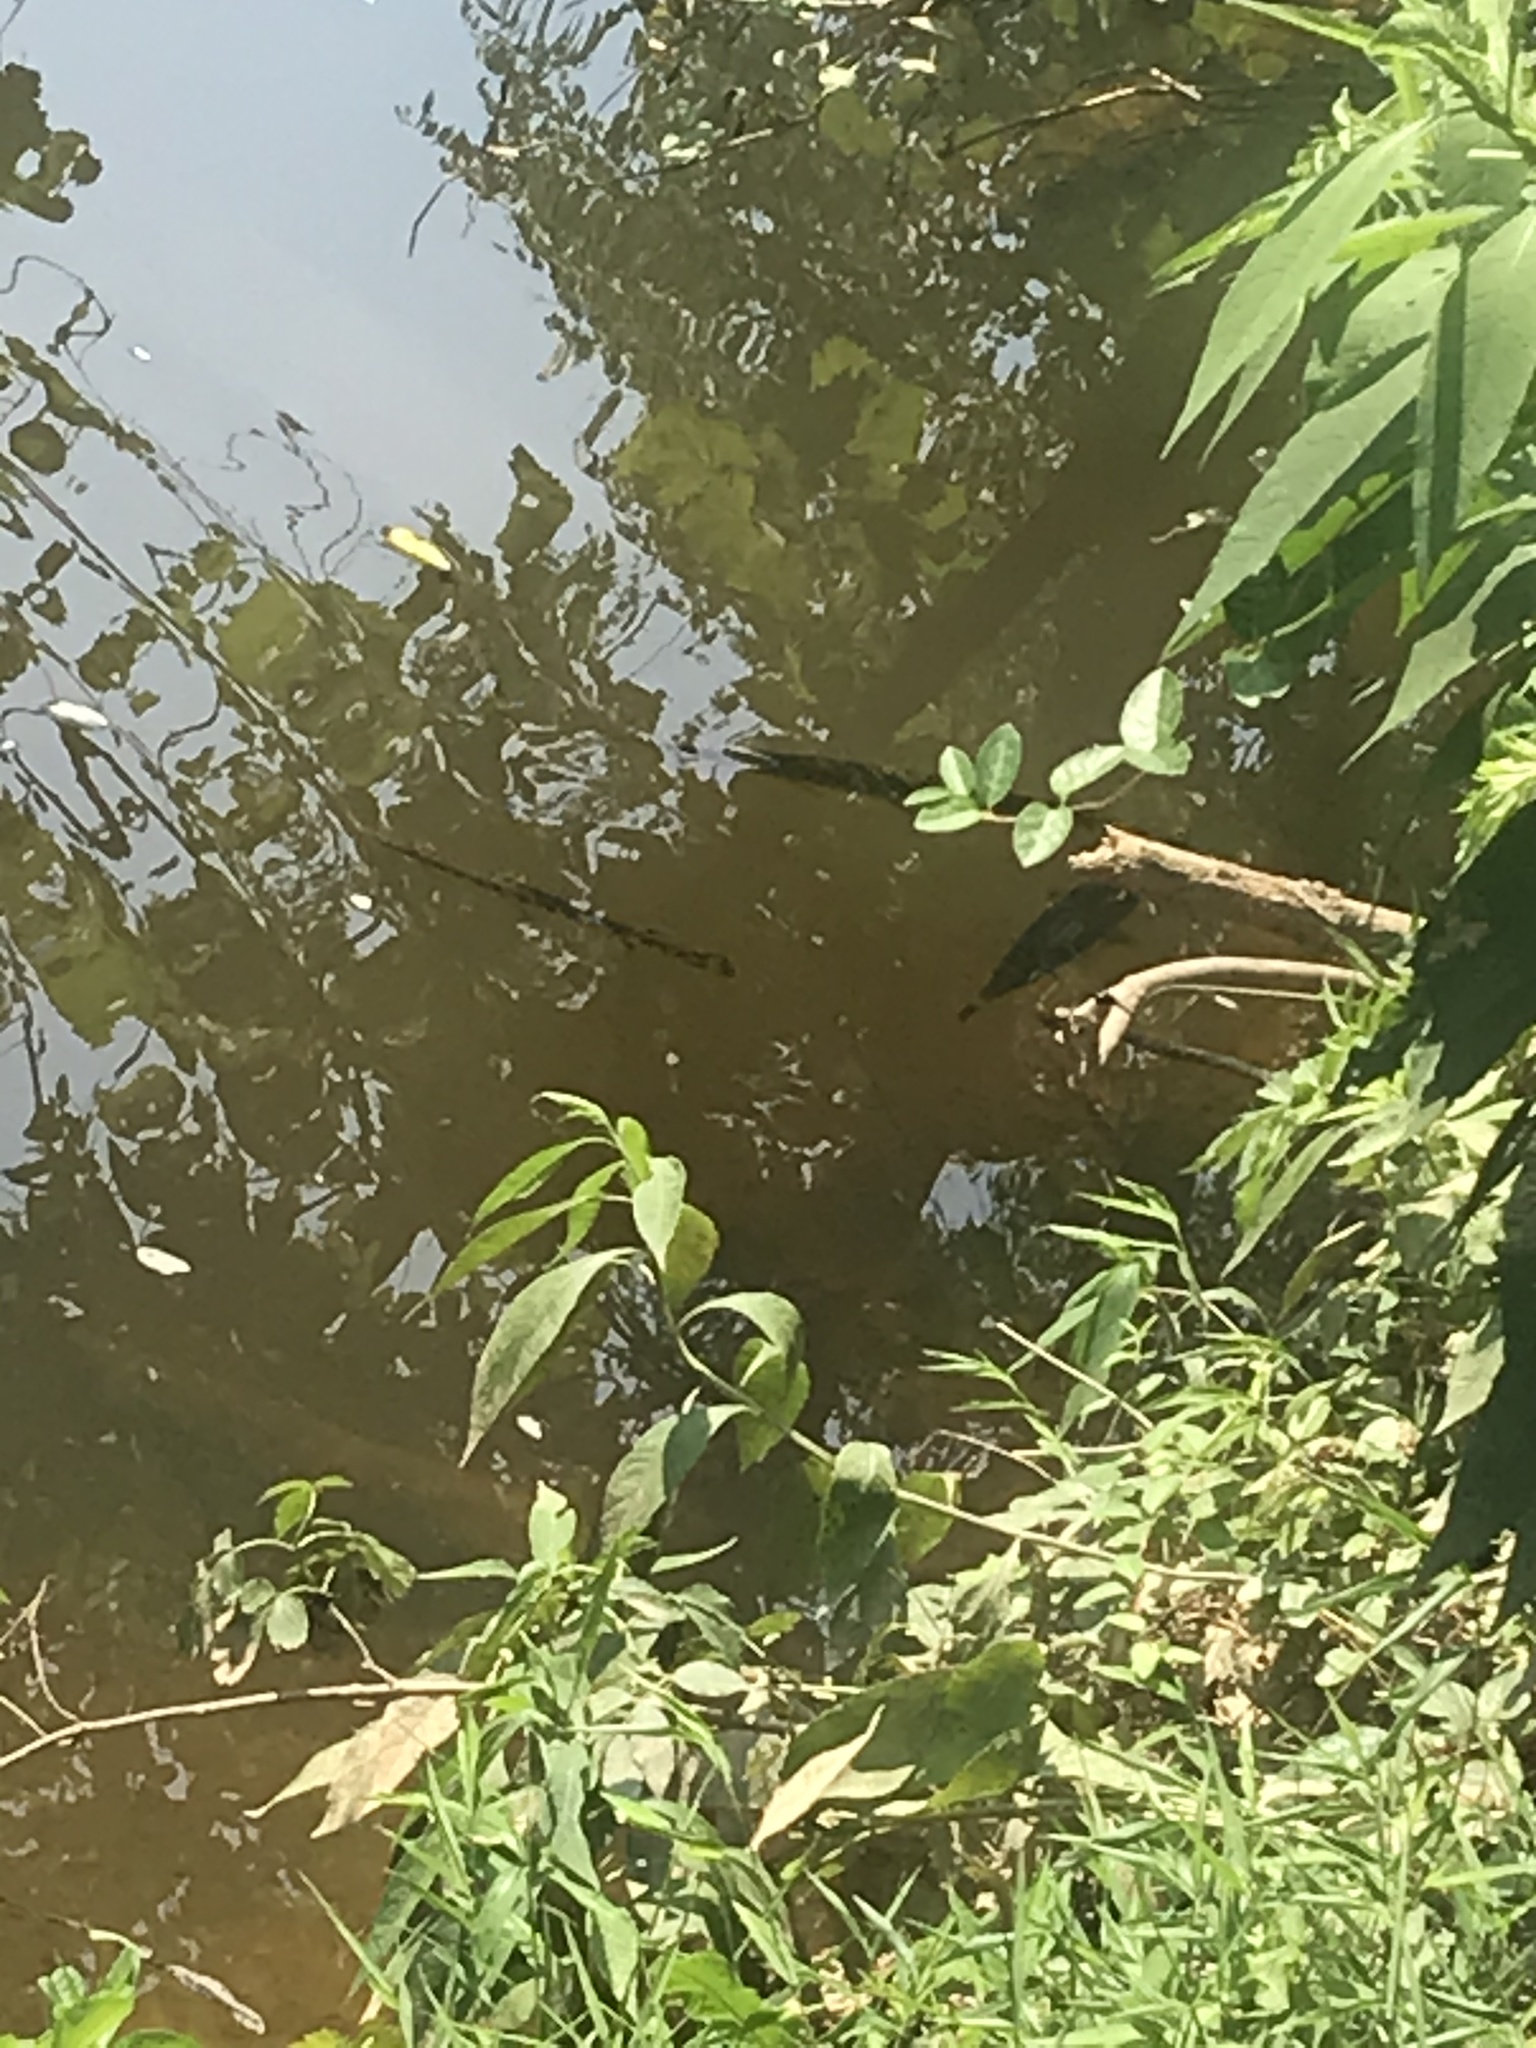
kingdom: Animalia
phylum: Chordata
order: Lepisosteiformes
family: Lepisosteidae
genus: Lepisosteus
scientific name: Lepisosteus osseus
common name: Longnose gar
